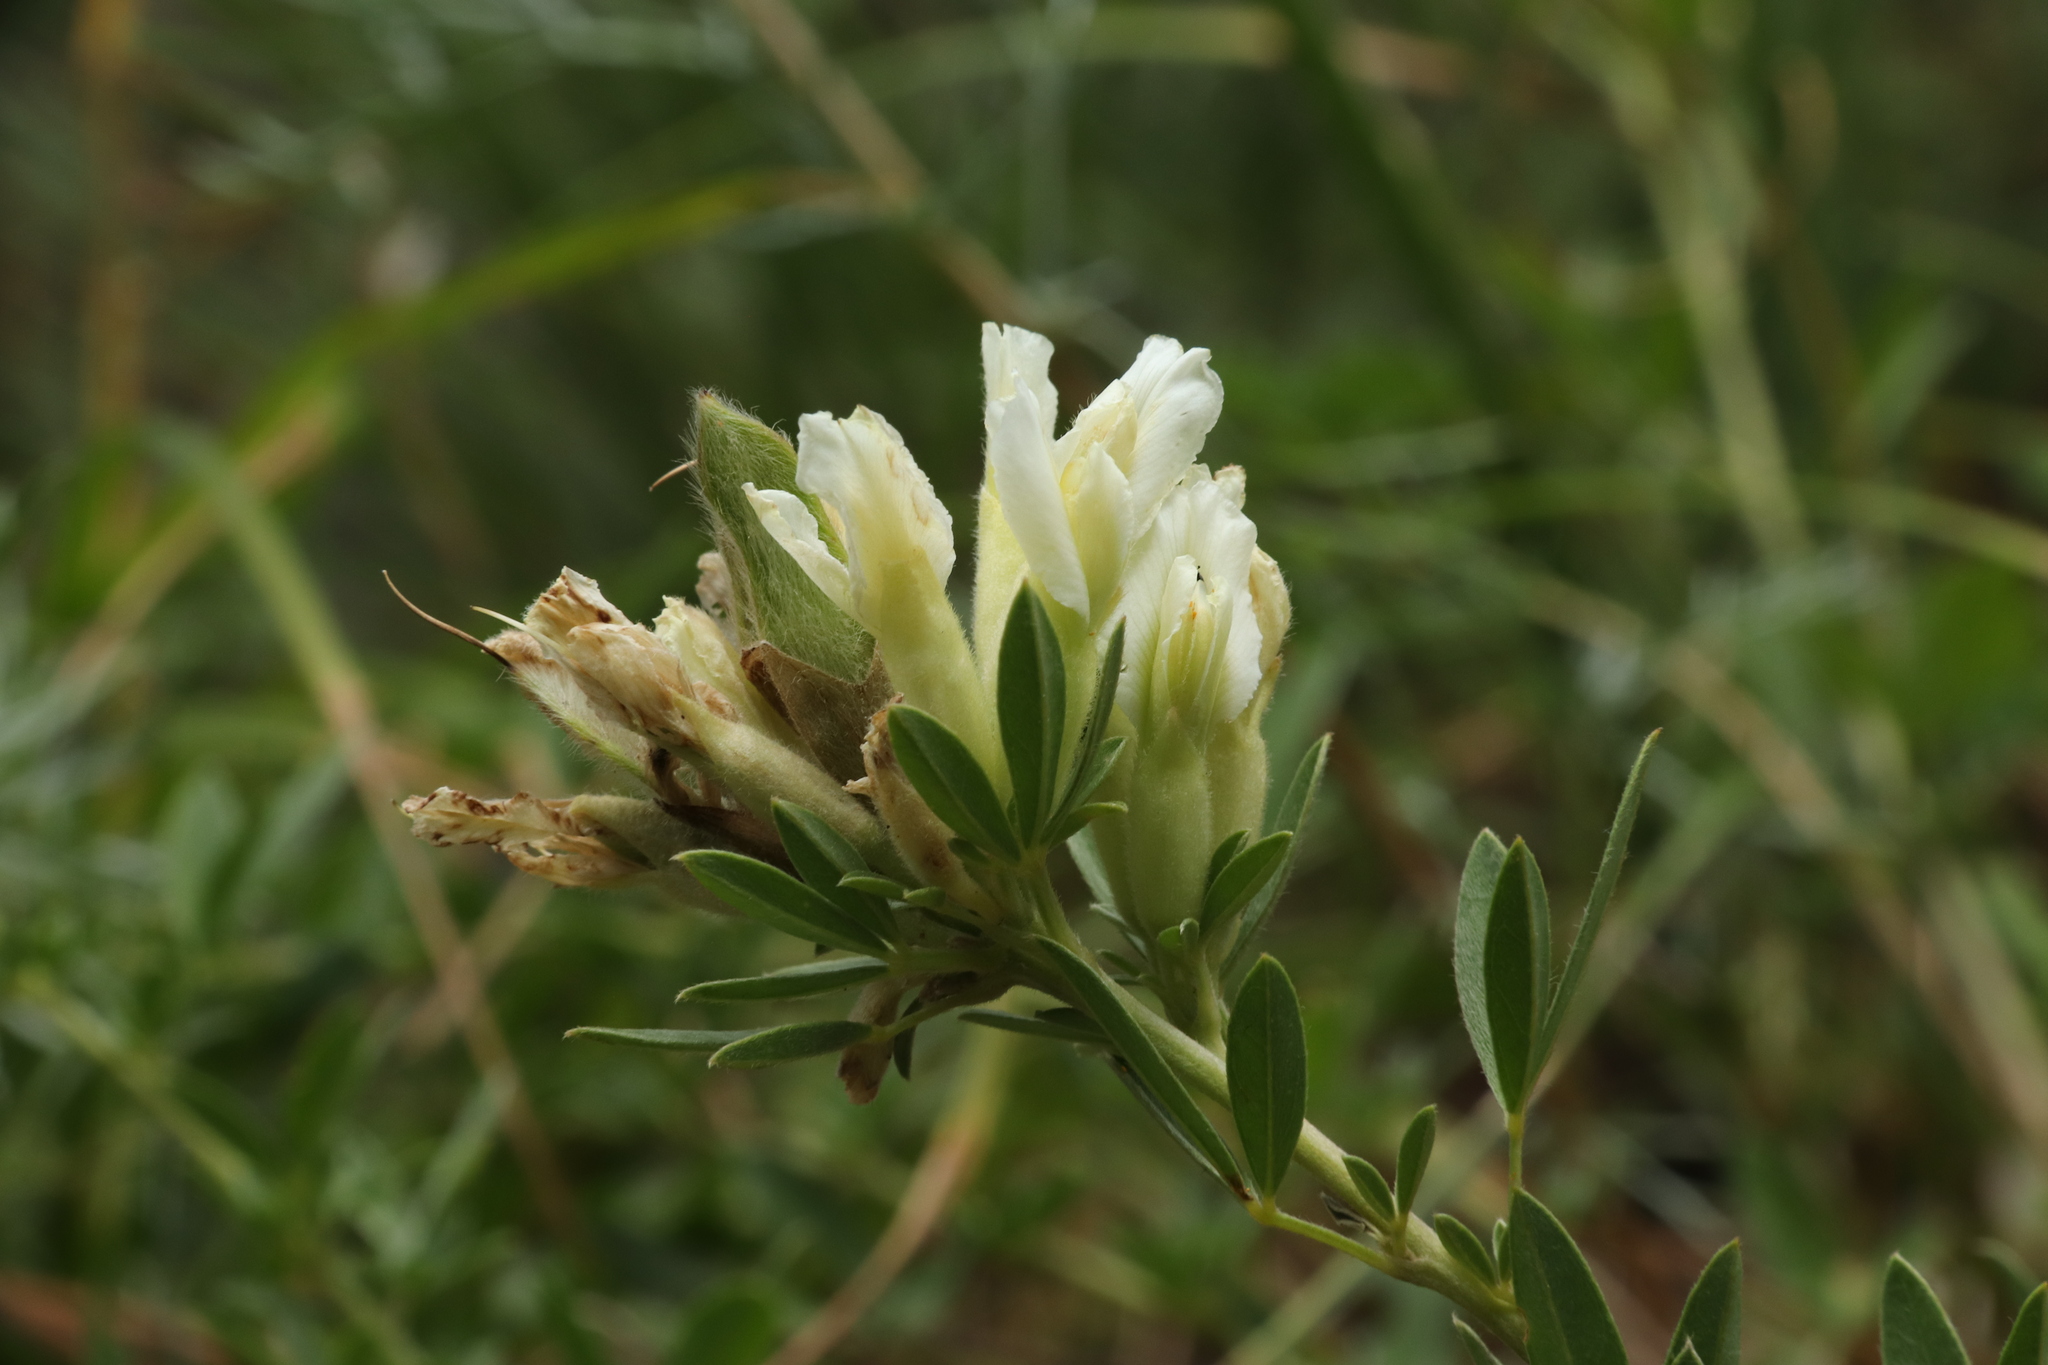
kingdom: Plantae
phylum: Tracheophyta
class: Magnoliopsida
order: Fabales
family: Fabaceae
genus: Chamaecytisus
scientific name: Chamaecytisus albus
